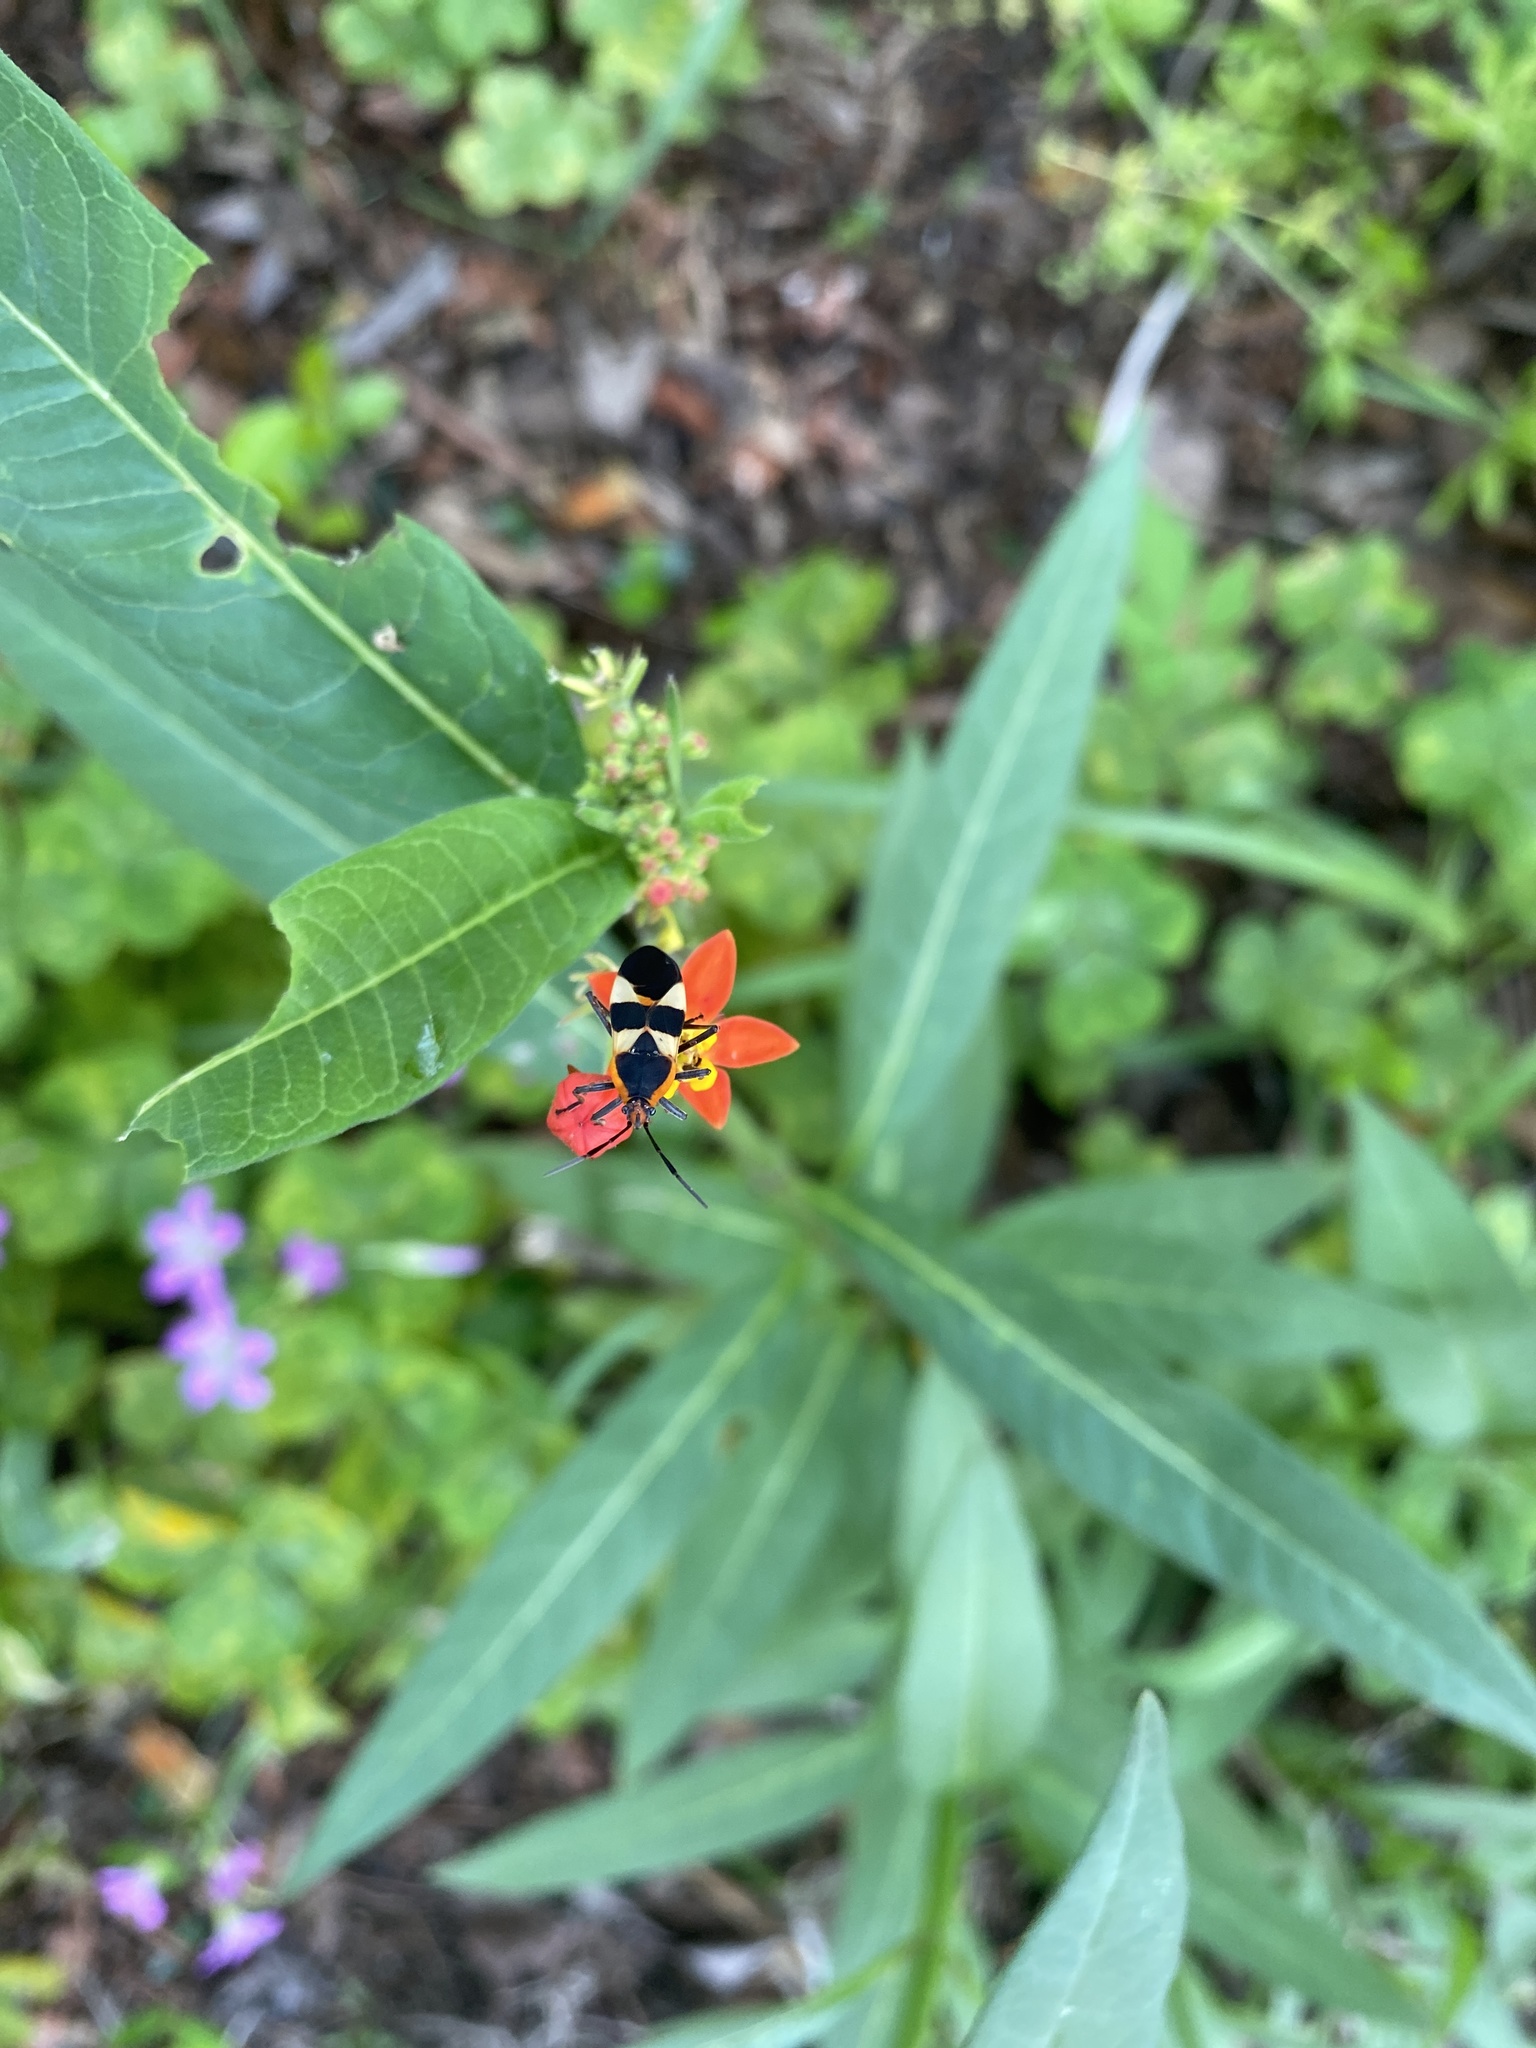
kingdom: Animalia
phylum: Arthropoda
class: Insecta
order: Hemiptera
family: Lygaeidae
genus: Oncopeltus
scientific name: Oncopeltus fasciatus
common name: Large milkweed bug
